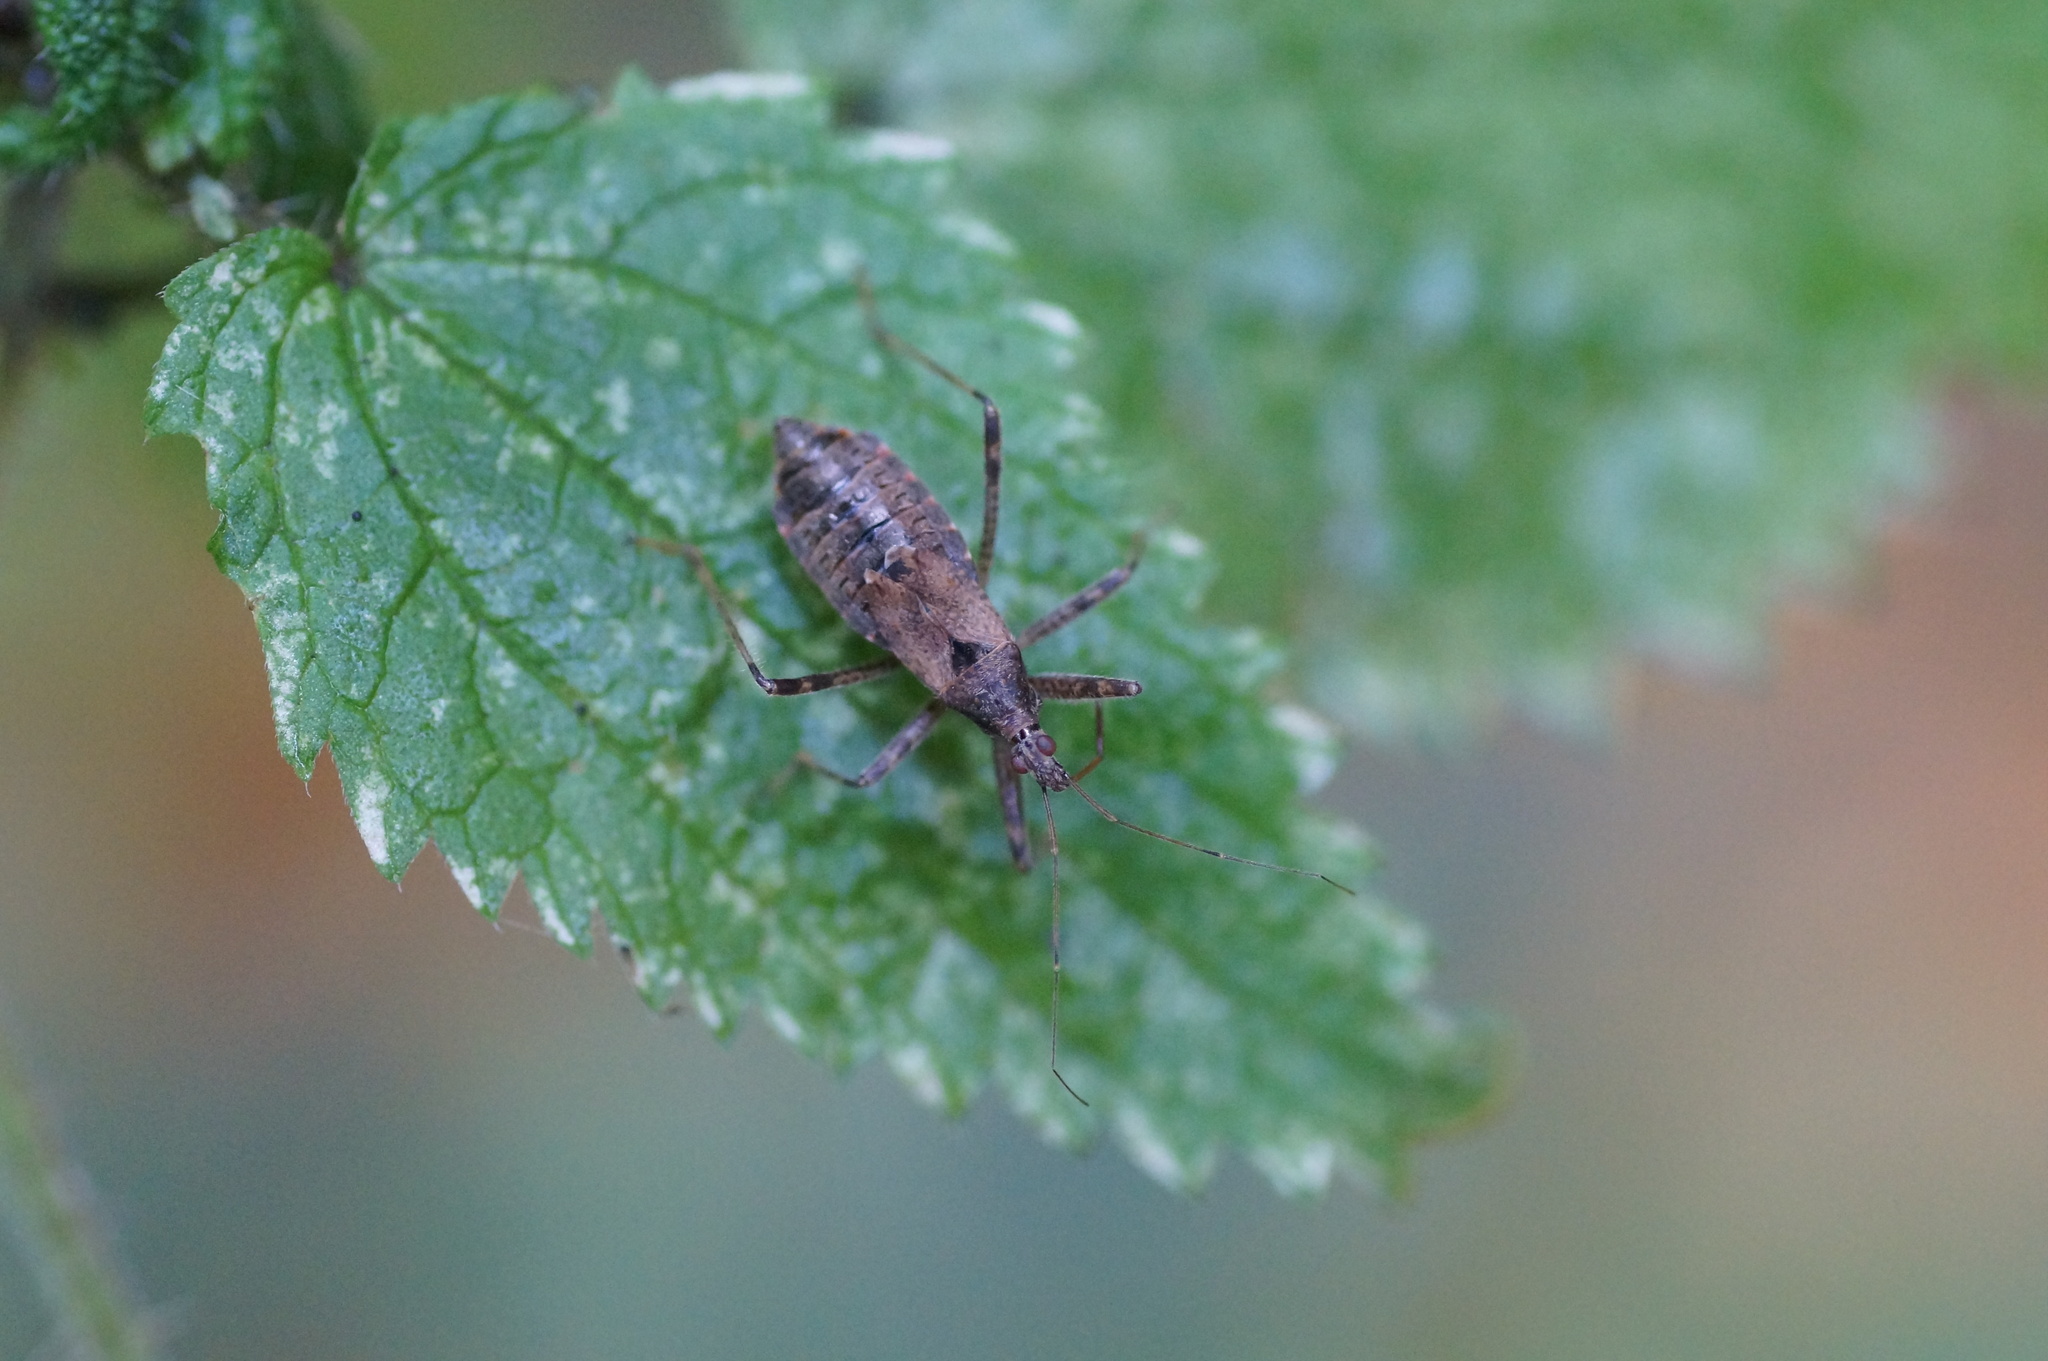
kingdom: Animalia
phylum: Arthropoda
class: Insecta
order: Hemiptera
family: Nabidae
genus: Himacerus
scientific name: Himacerus apterus
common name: Tree damsel bug
